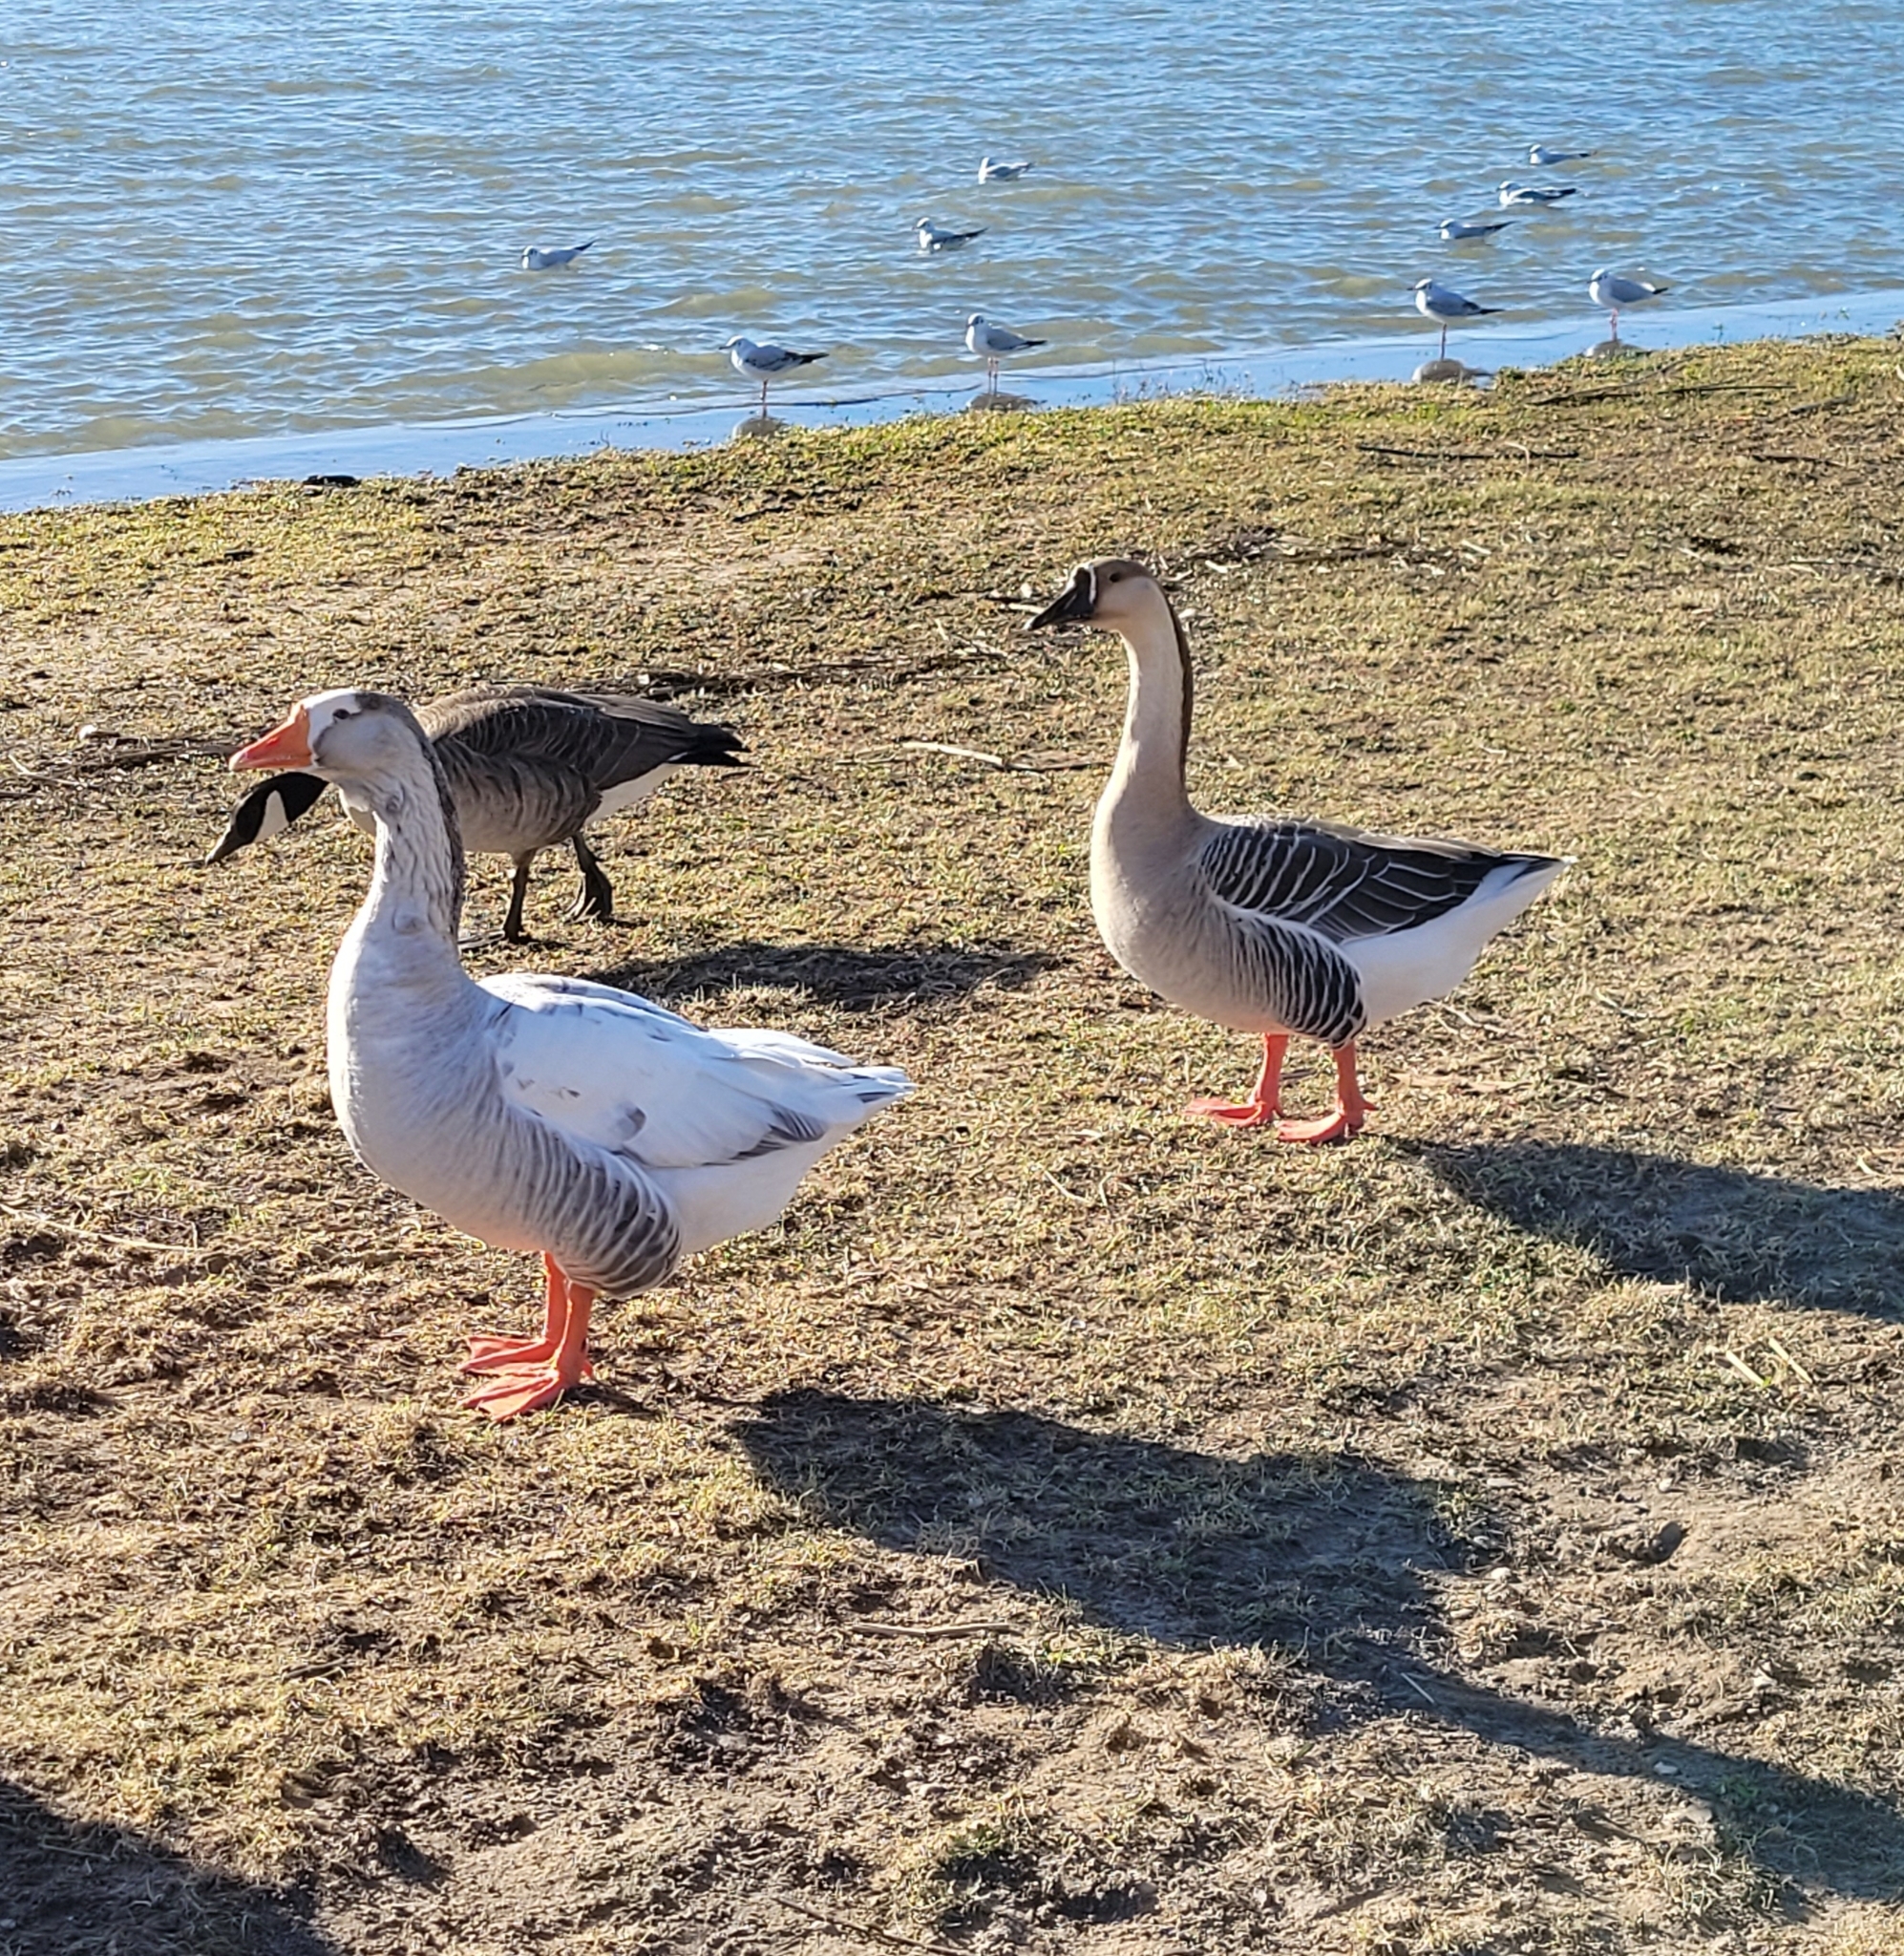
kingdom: Animalia
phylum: Chordata
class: Aves
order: Anseriformes
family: Anatidae
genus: Anser
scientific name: Anser
